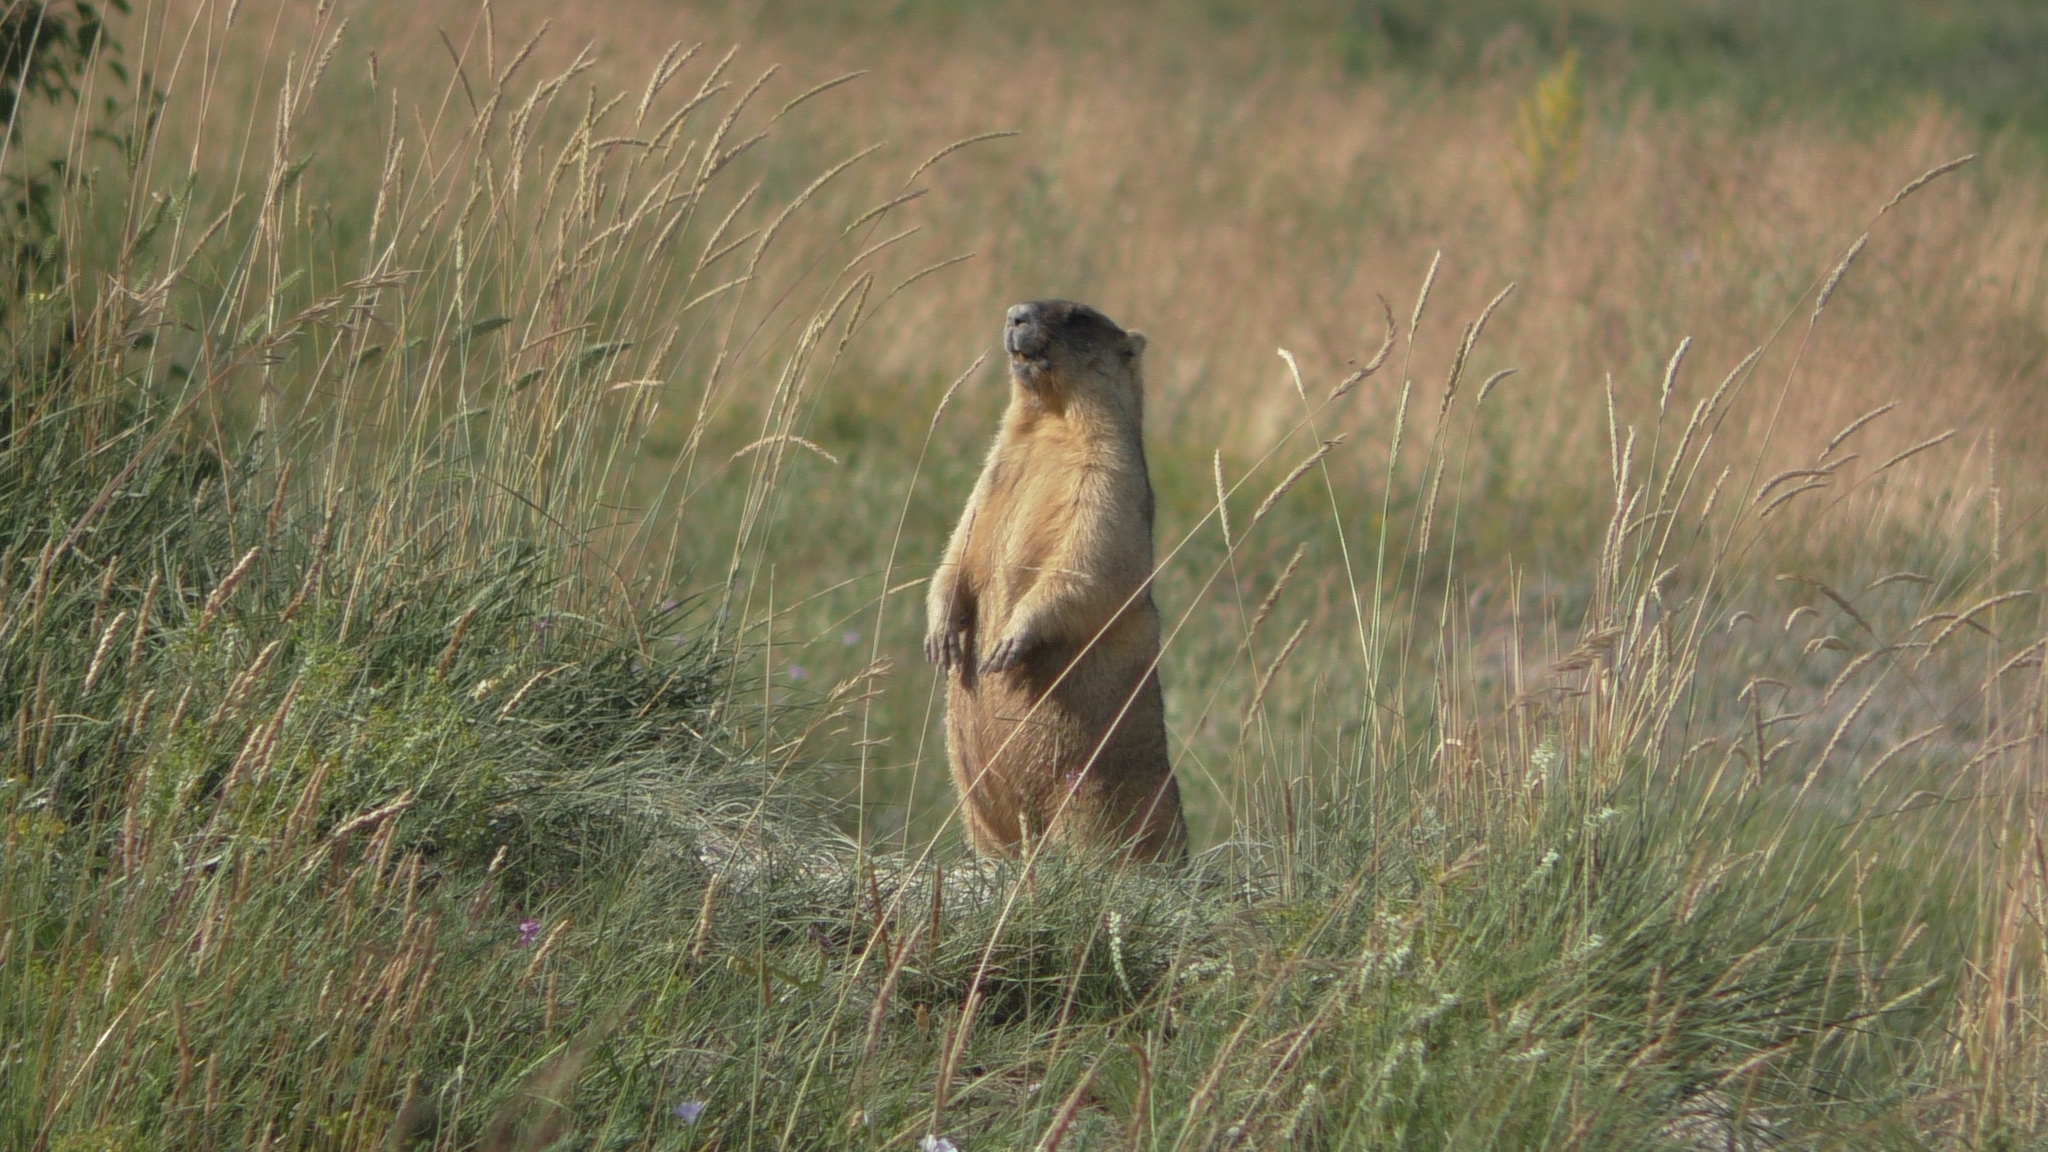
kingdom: Animalia
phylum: Chordata
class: Mammalia
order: Rodentia
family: Sciuridae
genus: Marmota
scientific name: Marmota bobak
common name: Bobak marmot
